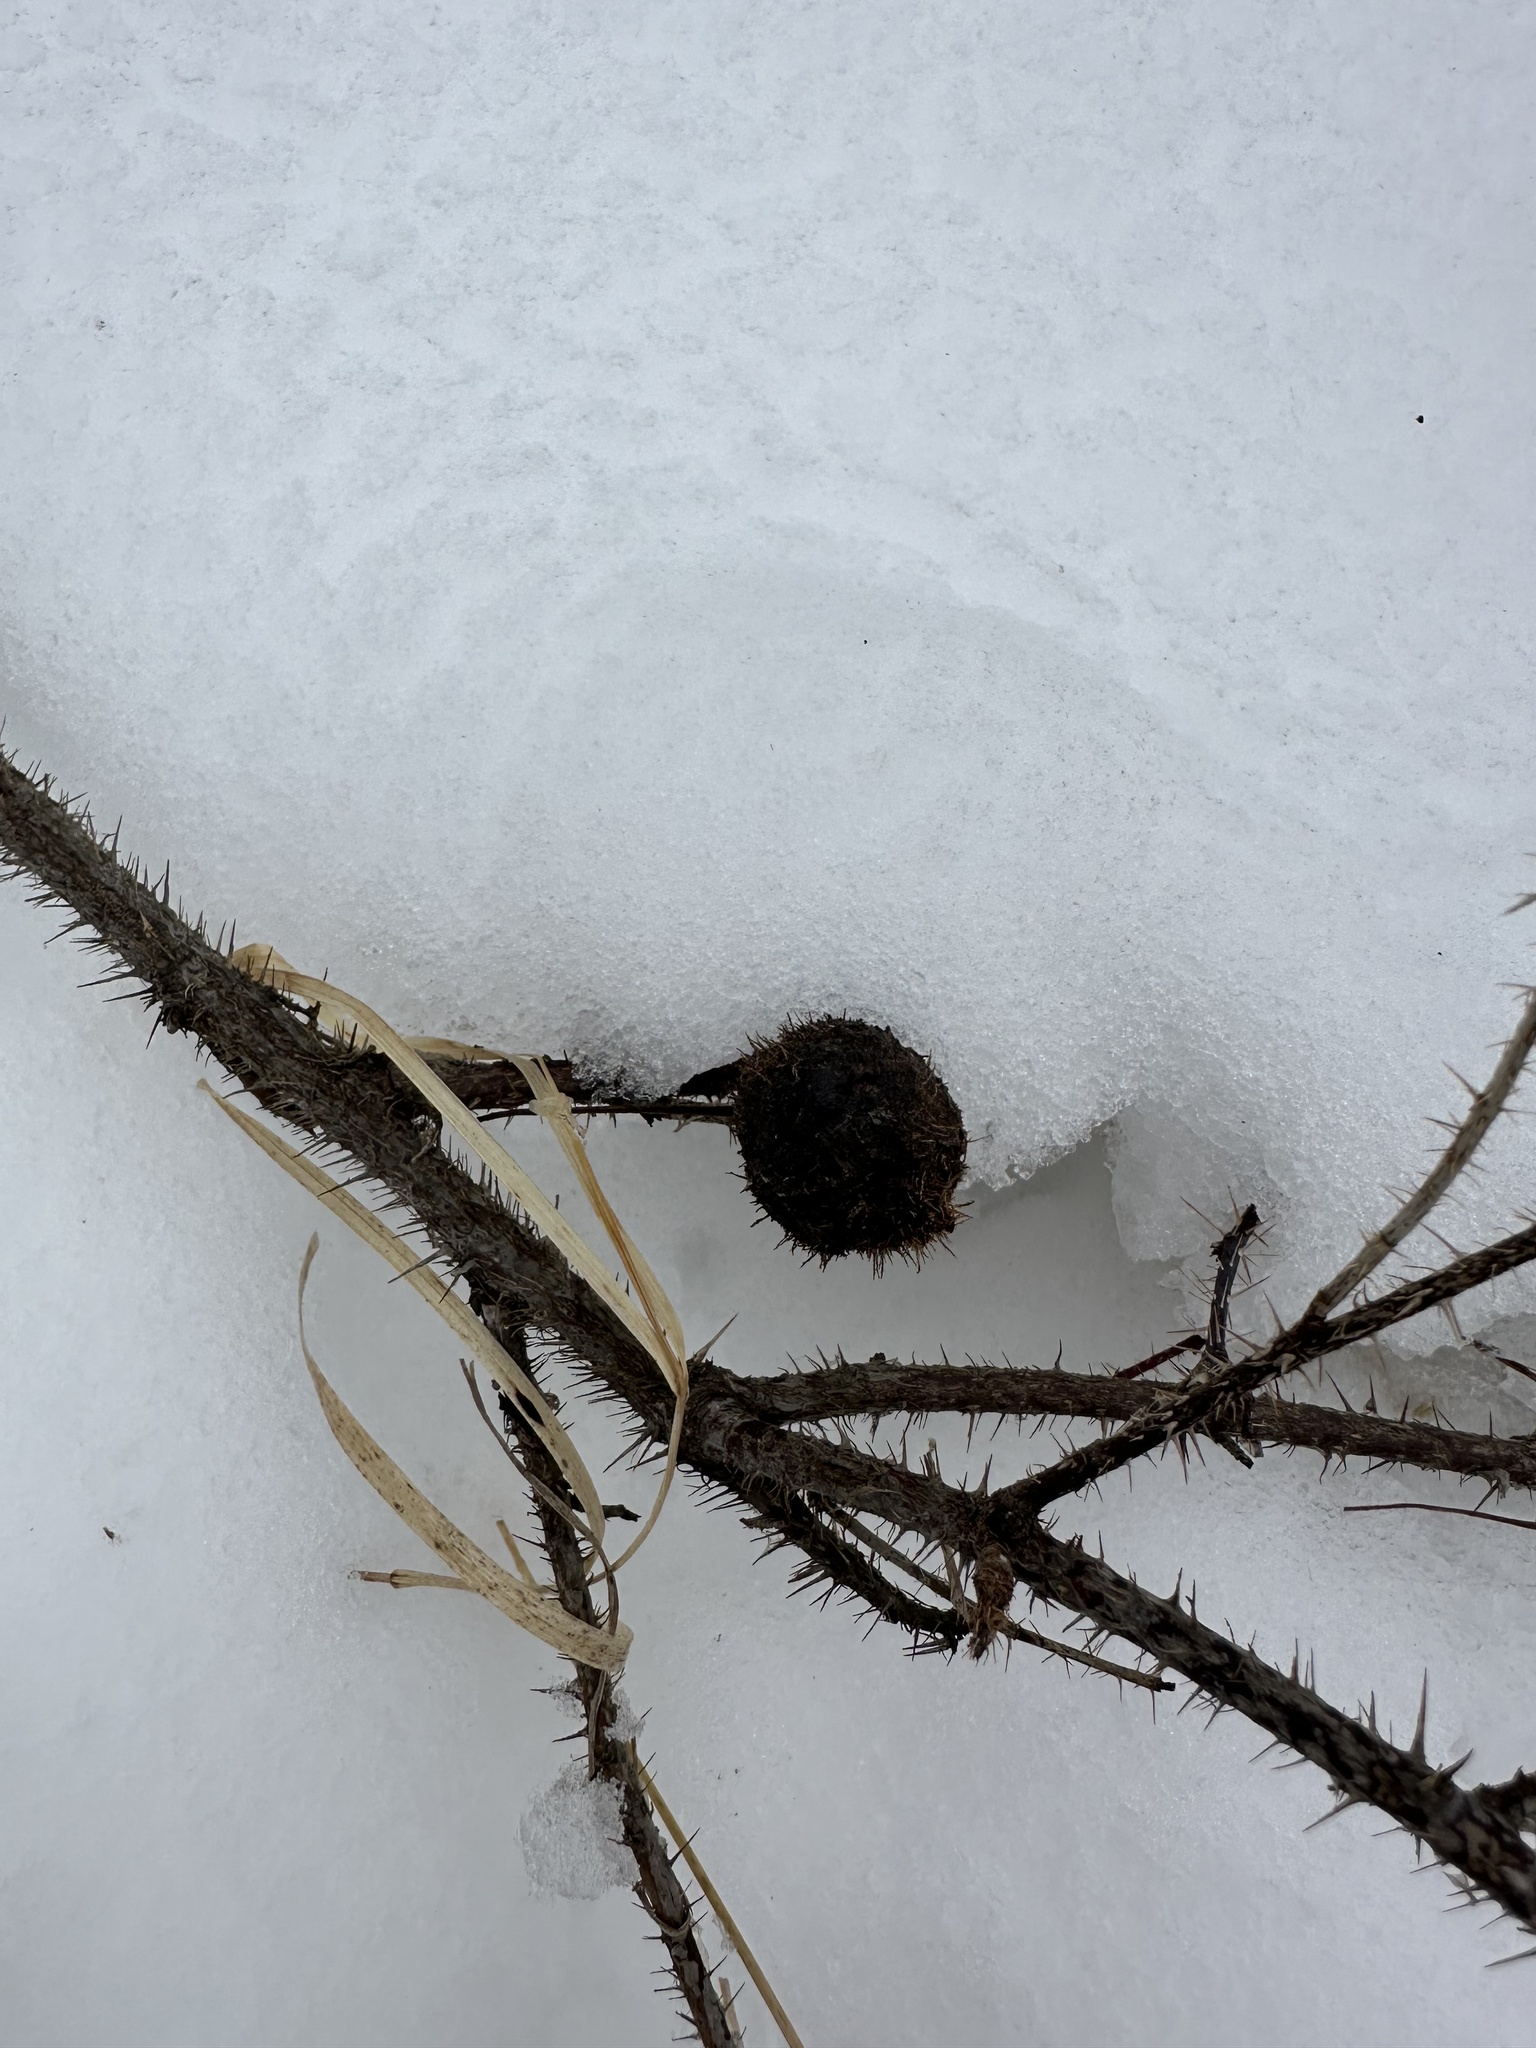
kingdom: Animalia
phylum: Arthropoda
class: Insecta
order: Hymenoptera
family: Cynipidae
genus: Diplolepis
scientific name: Diplolepis spinosa
